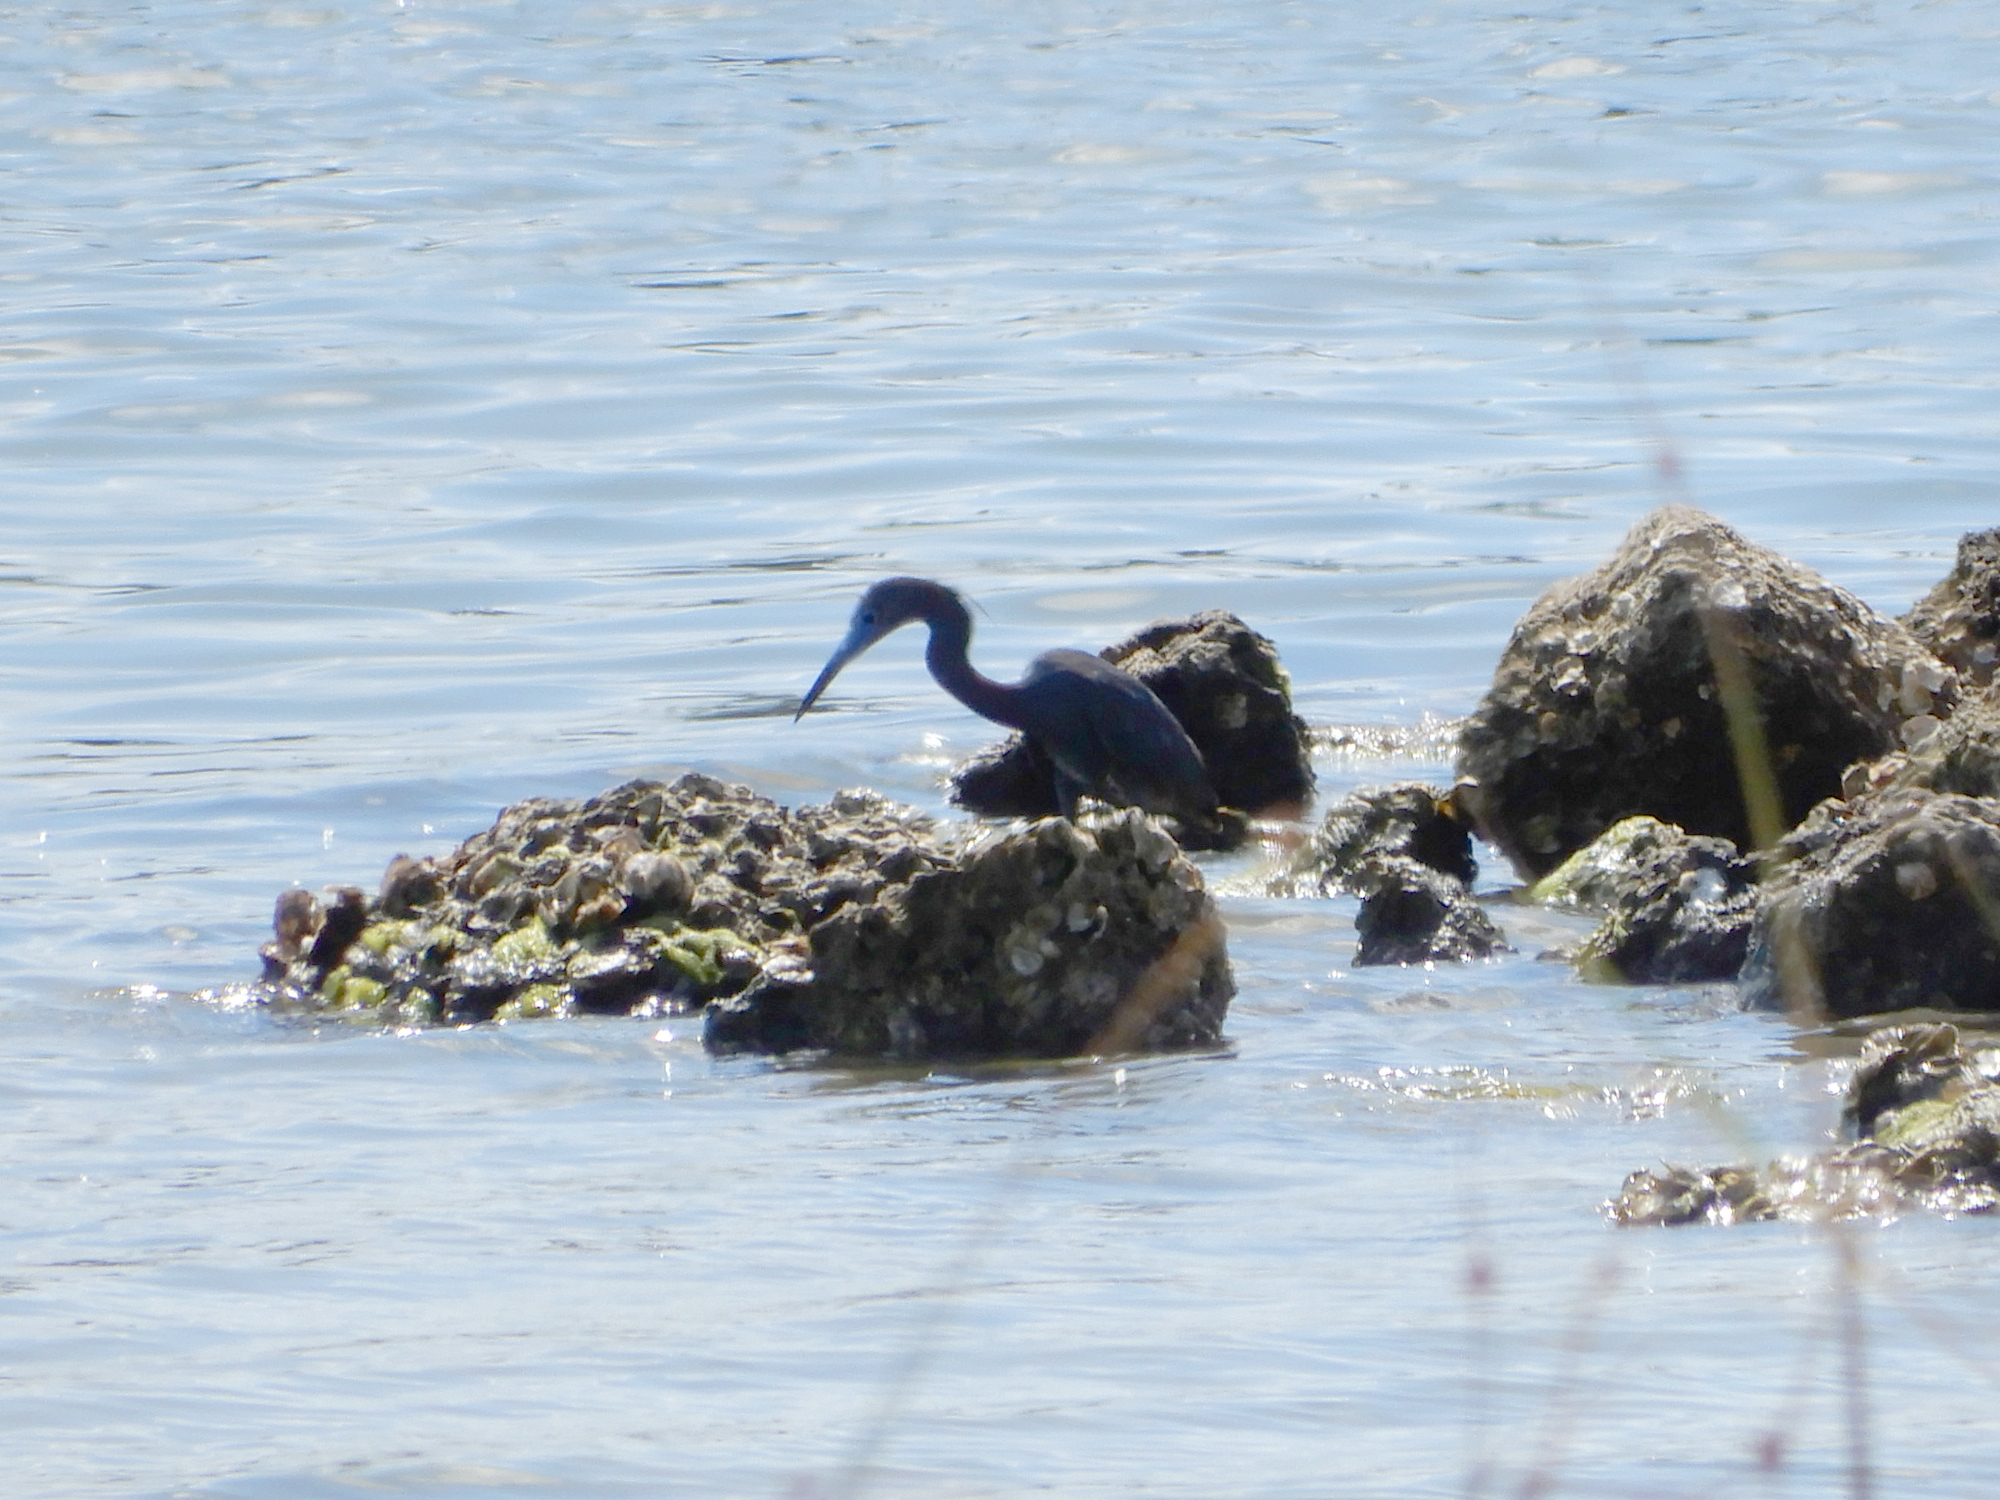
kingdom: Animalia
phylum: Chordata
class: Aves
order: Pelecaniformes
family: Ardeidae
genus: Egretta
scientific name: Egretta caerulea
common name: Little blue heron
